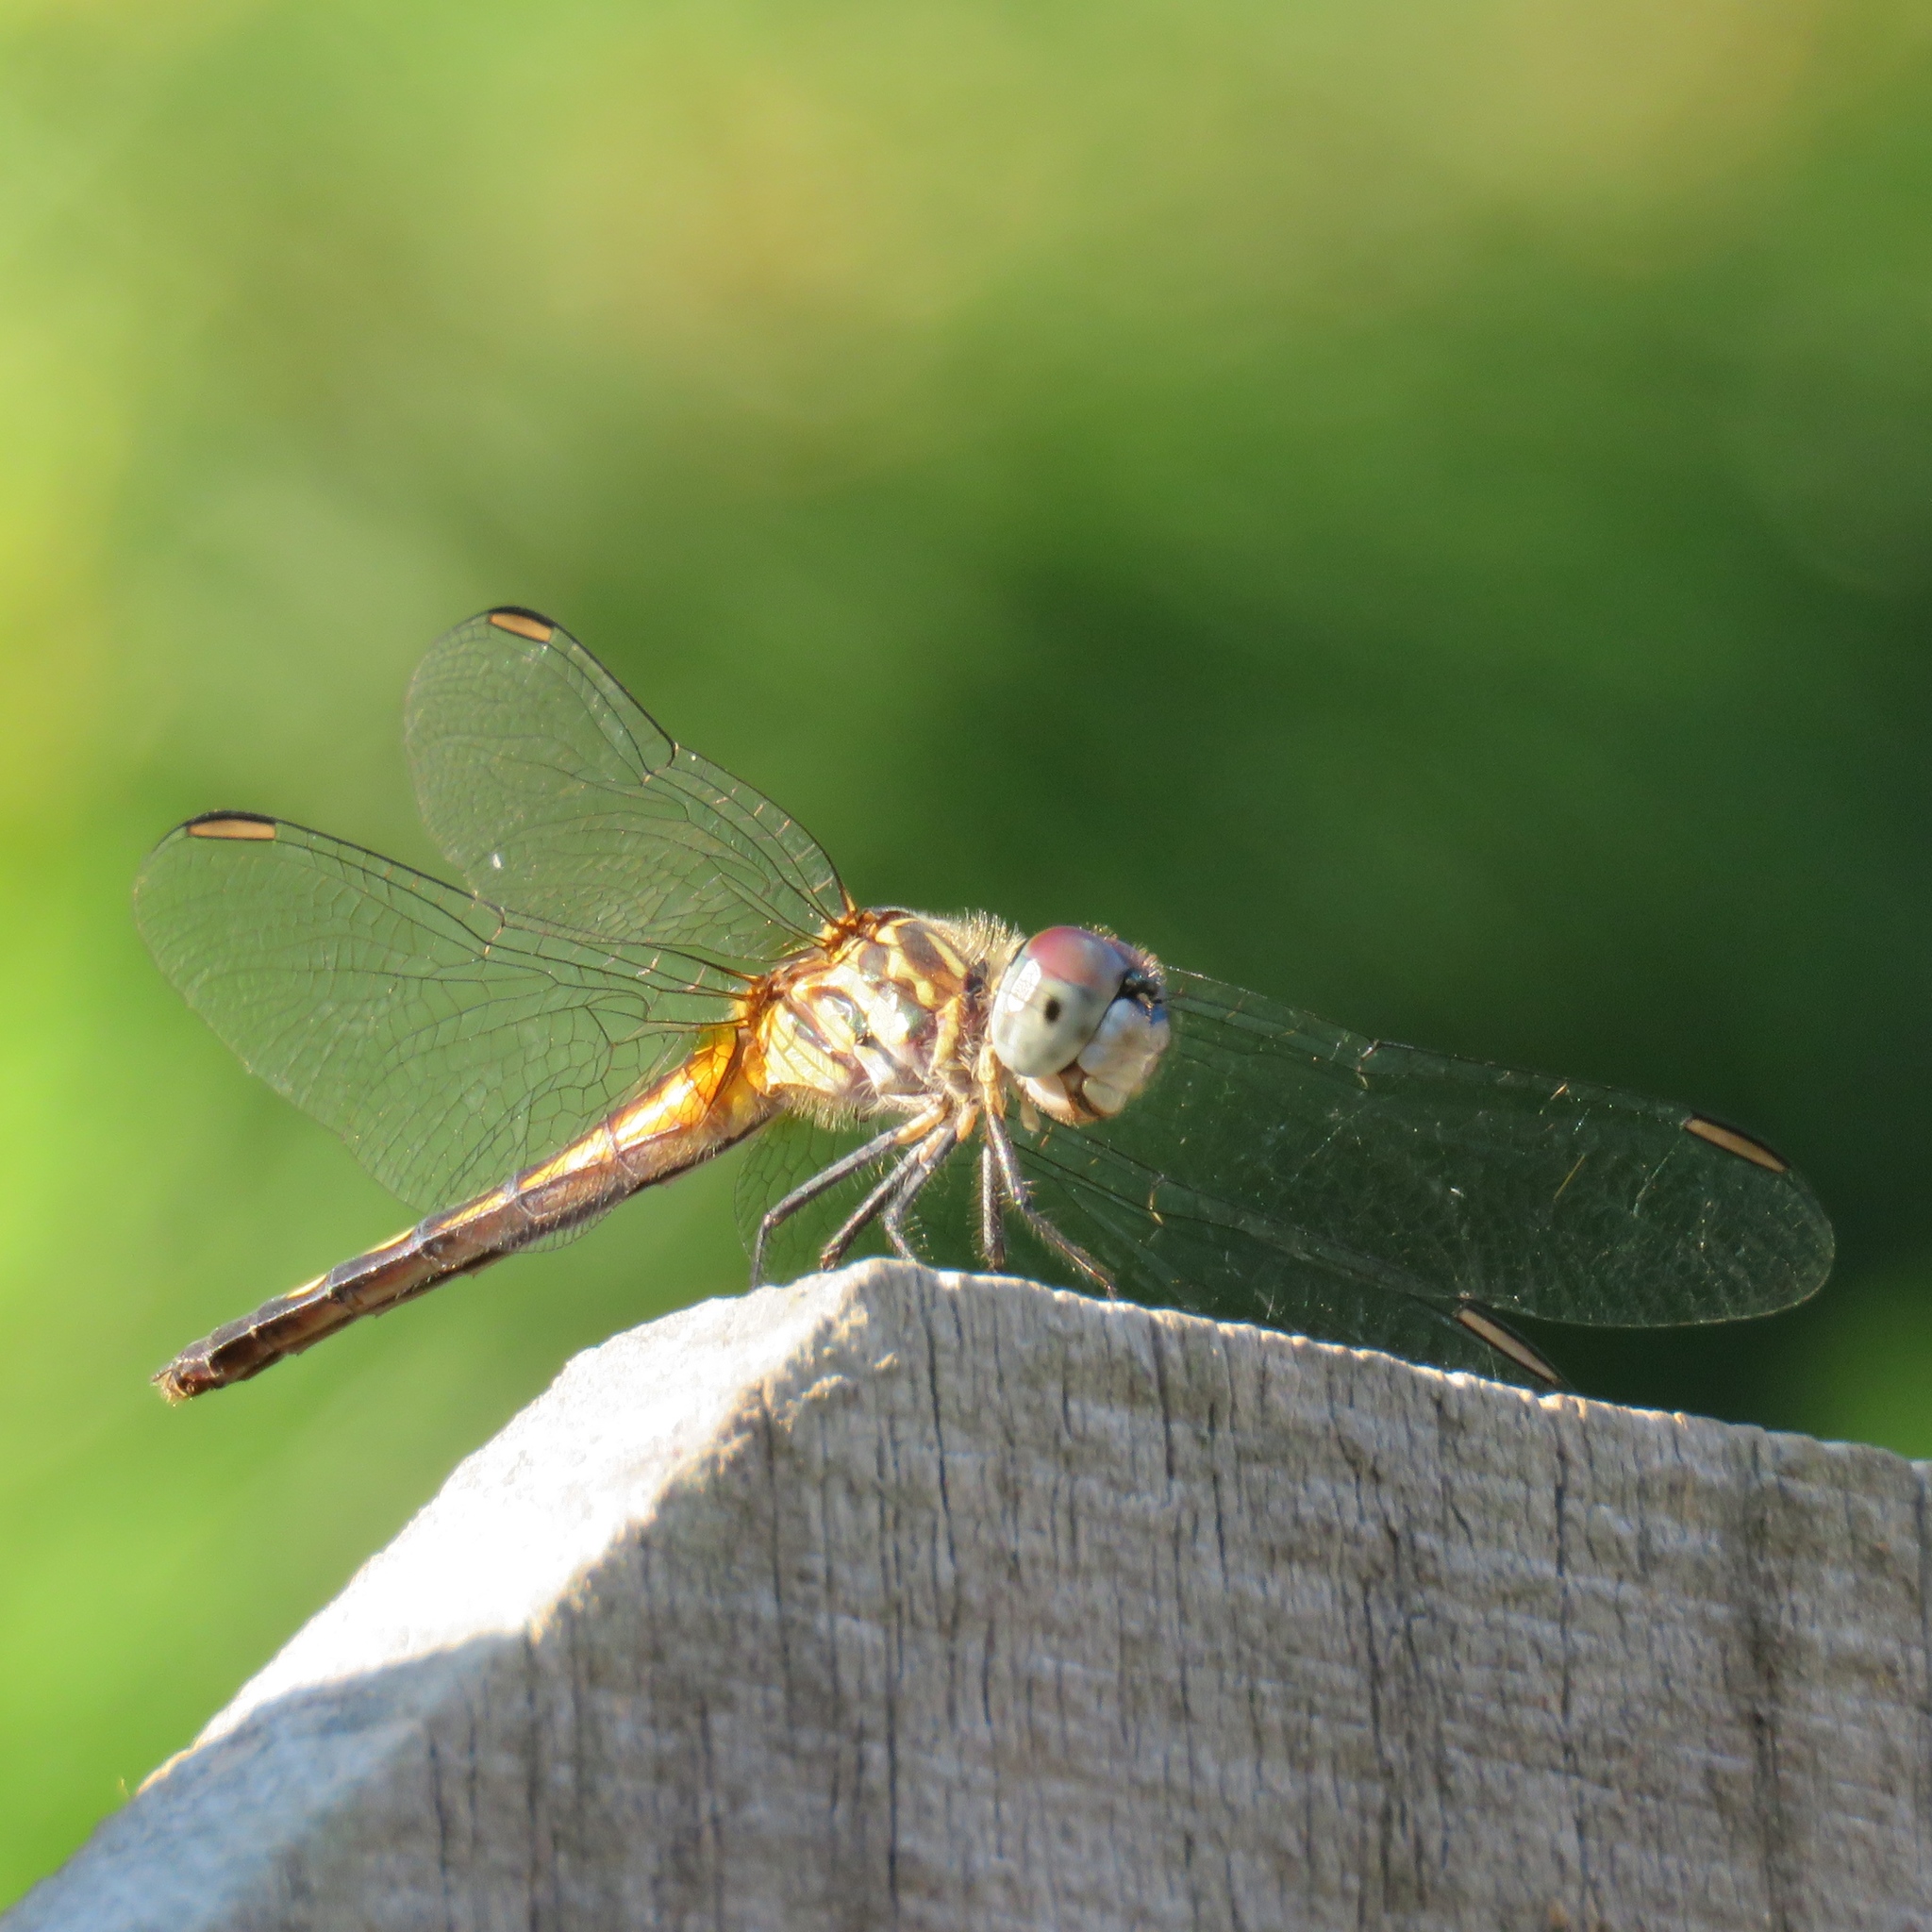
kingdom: Animalia
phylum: Arthropoda
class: Insecta
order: Odonata
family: Libellulidae
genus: Pachydiplax
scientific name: Pachydiplax longipennis
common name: Blue dasher
